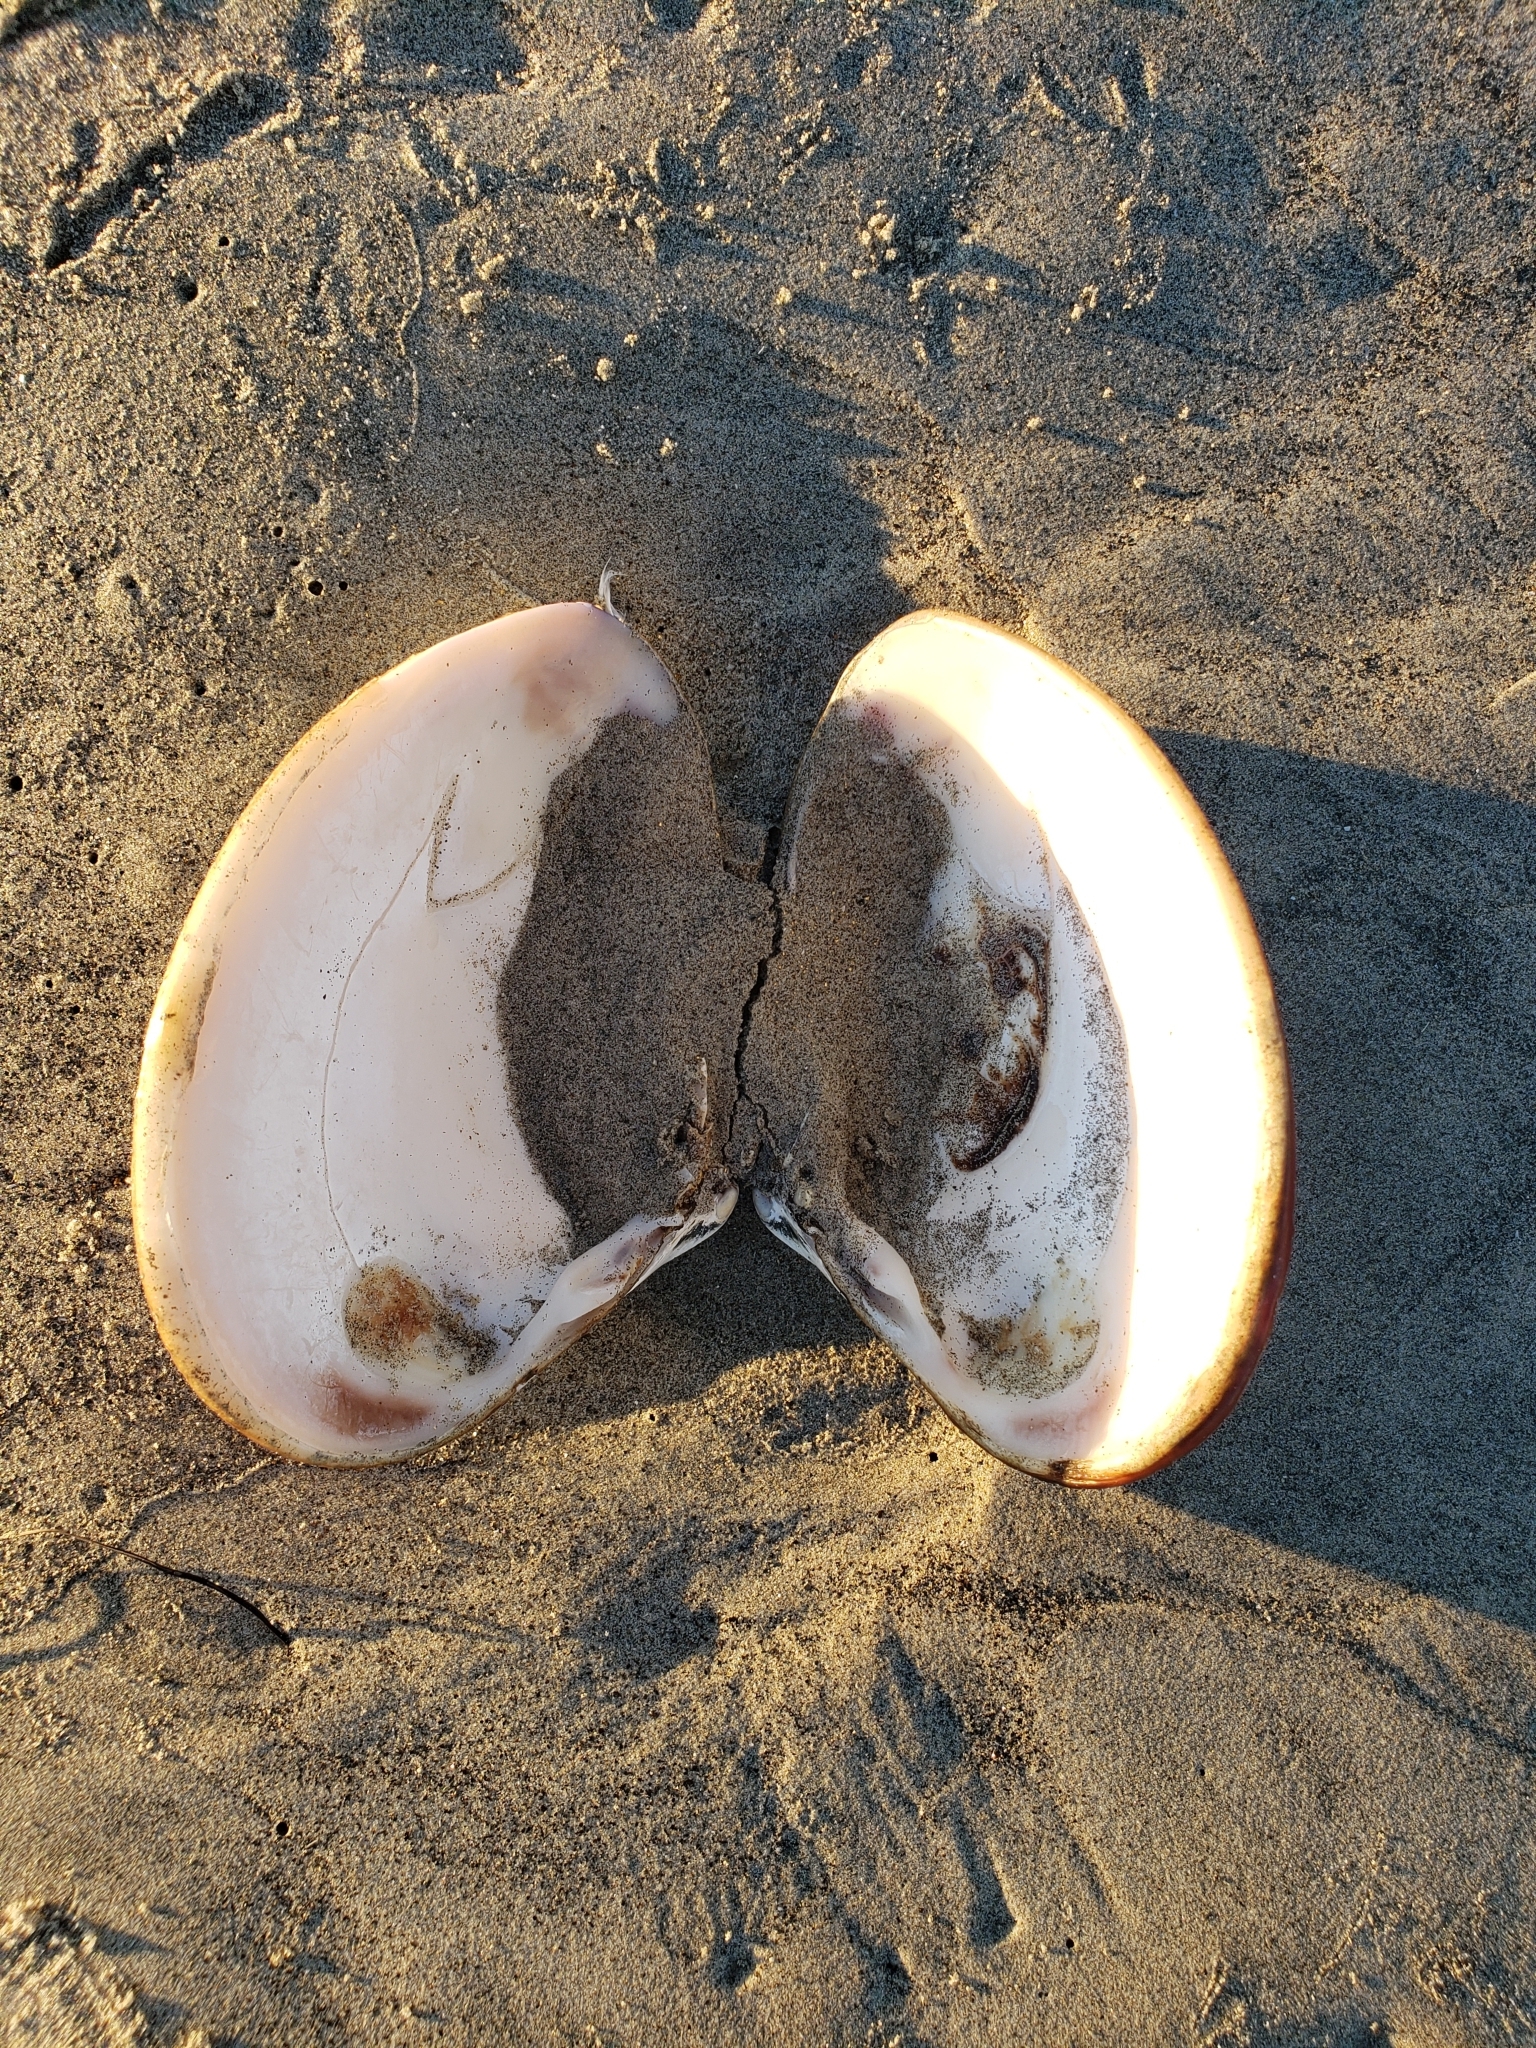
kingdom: Animalia
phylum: Mollusca
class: Bivalvia
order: Venerida
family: Veneridae
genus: Tivela
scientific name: Tivela stultorum
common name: Pismo clam
